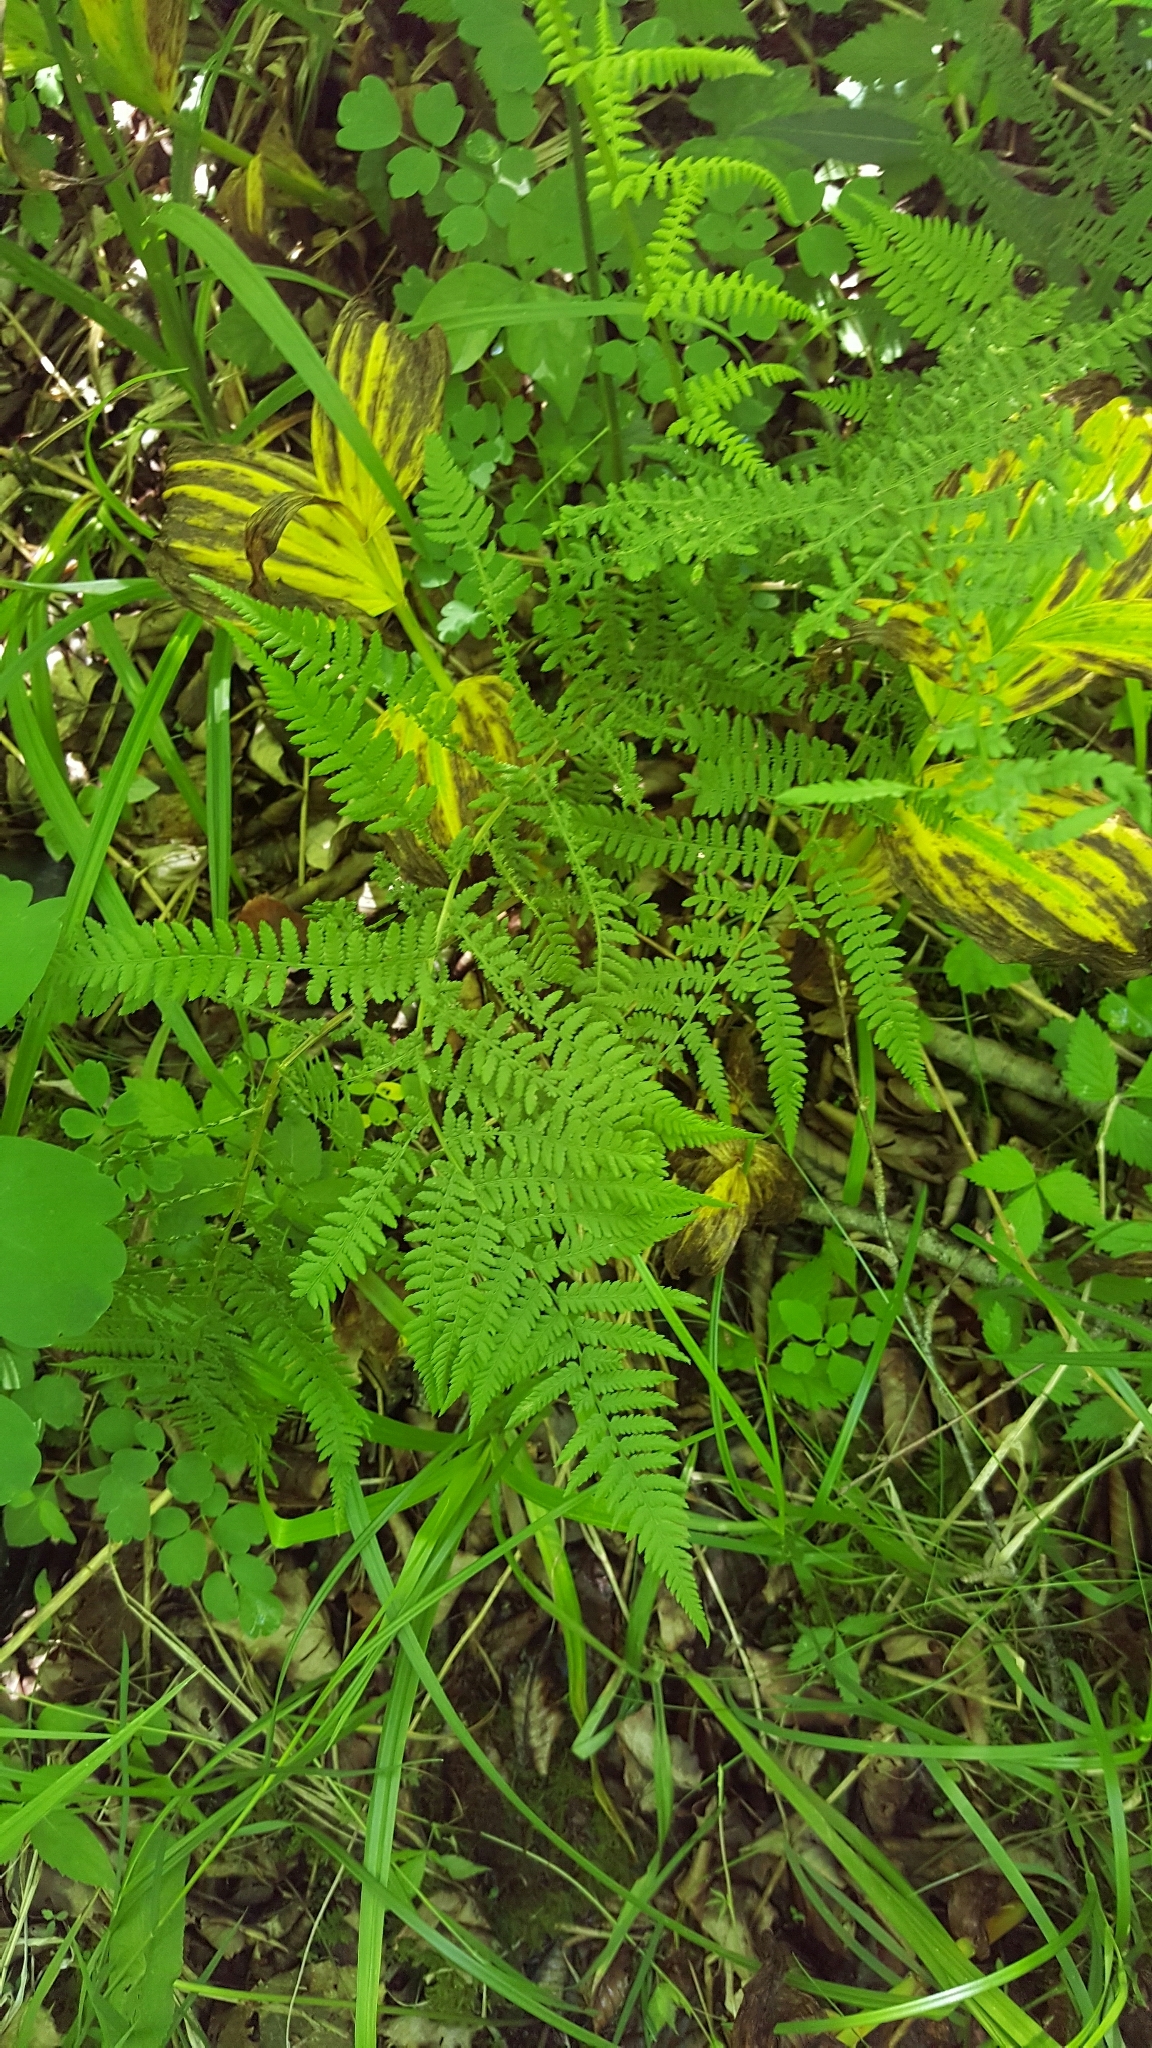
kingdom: Plantae
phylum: Tracheophyta
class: Polypodiopsida
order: Polypodiales
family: Athyriaceae
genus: Athyrium
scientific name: Athyrium angustum
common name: Northern lady fern
